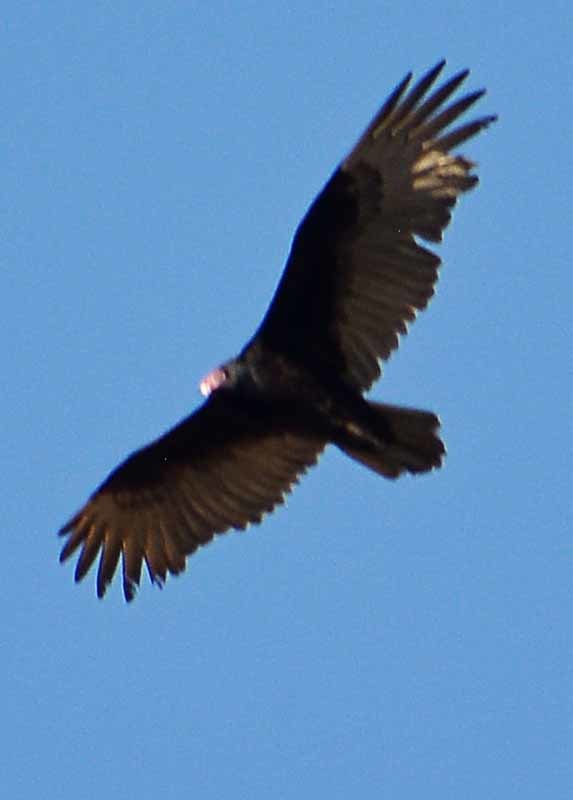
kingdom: Animalia
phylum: Chordata
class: Aves
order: Accipitriformes
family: Cathartidae
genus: Cathartes
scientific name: Cathartes aura
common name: Turkey vulture
